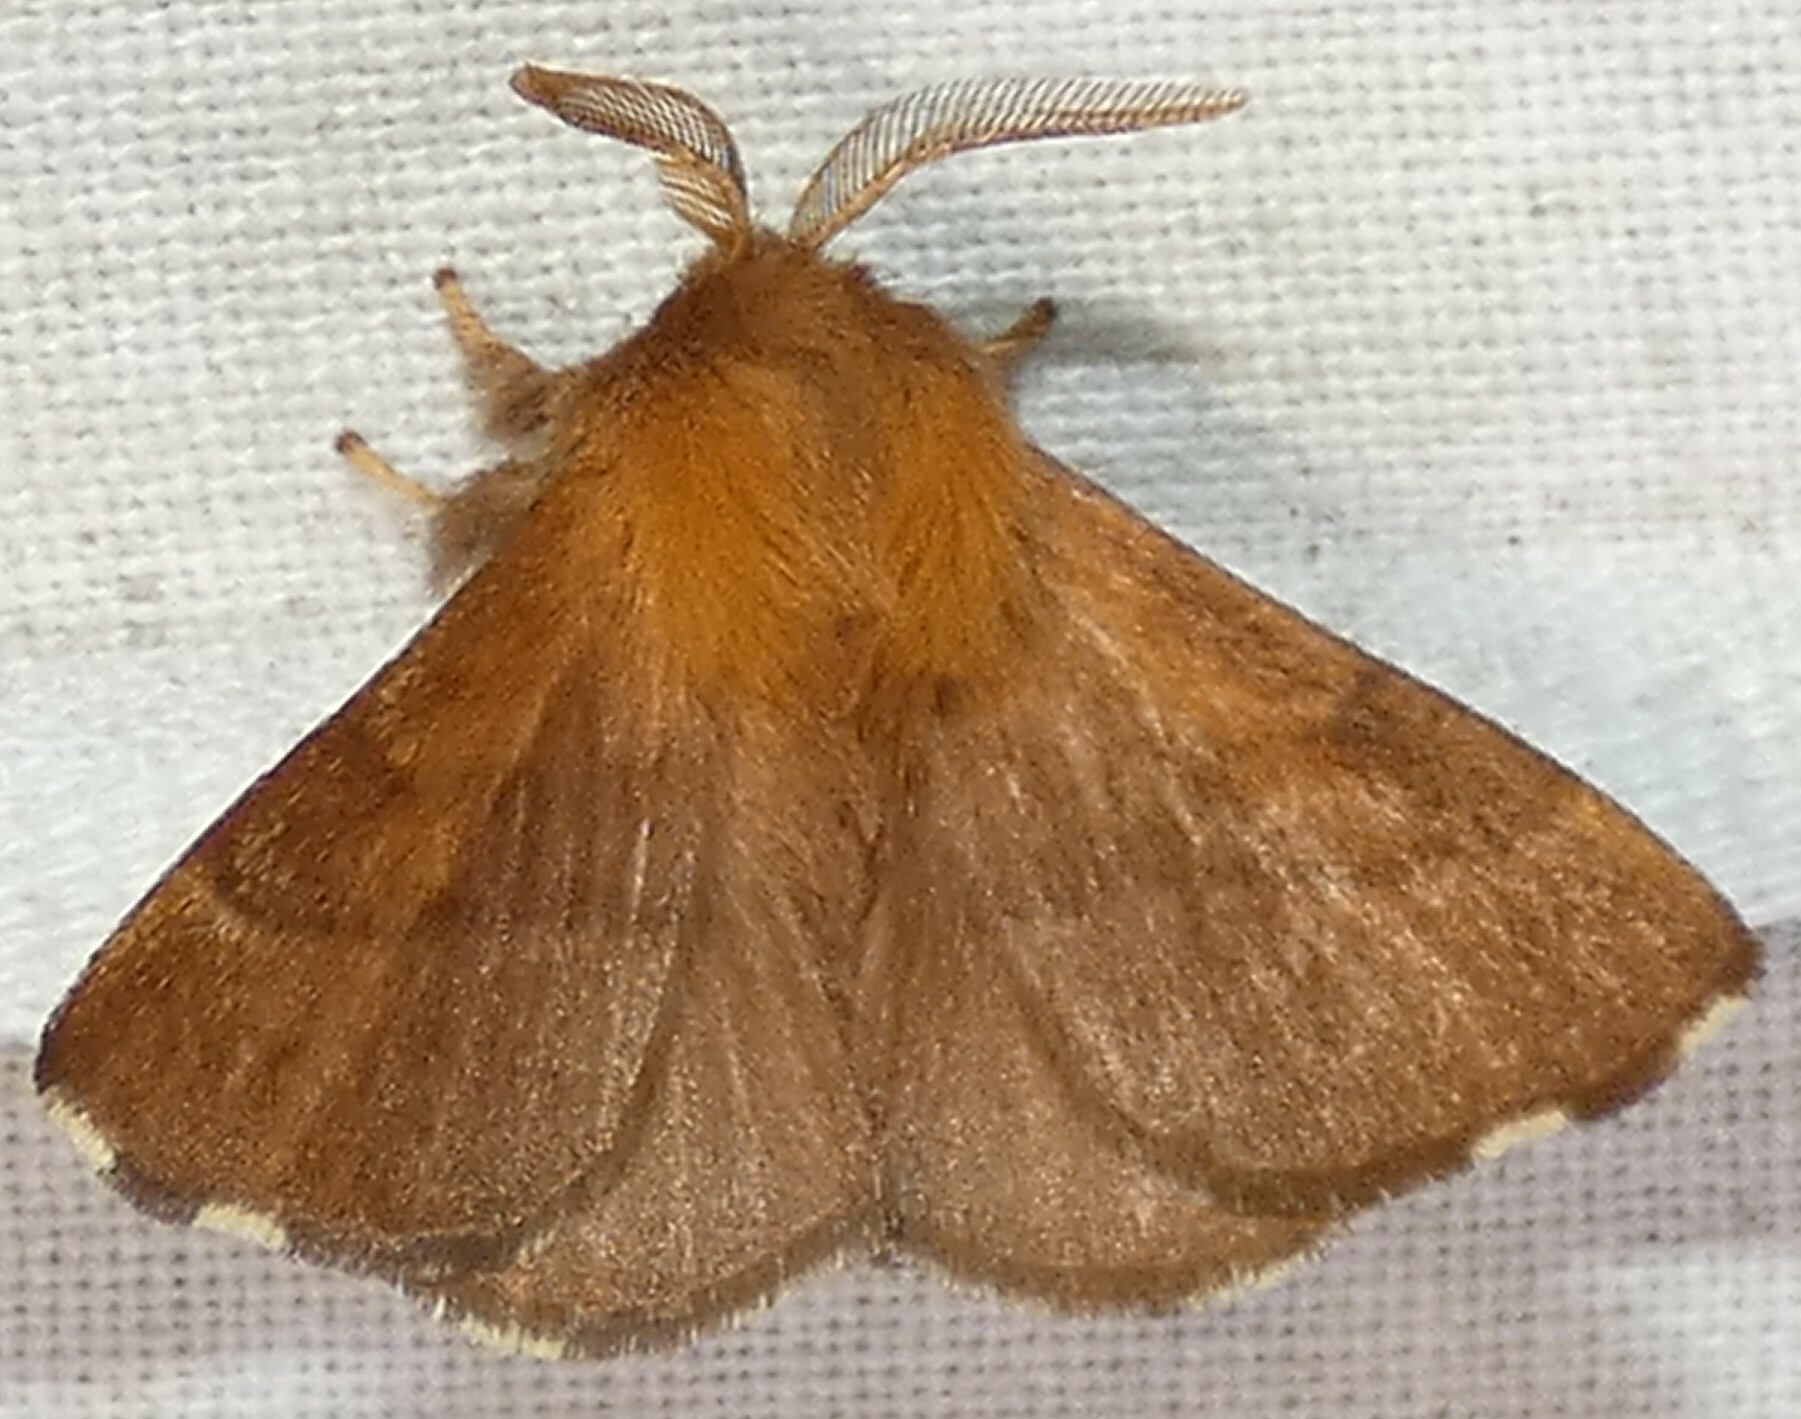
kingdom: Animalia
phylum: Arthropoda
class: Insecta
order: Lepidoptera
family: Lasiocampidae
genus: Malacosoma
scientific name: Malacosoma disstria
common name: Forest tent caterpillar
